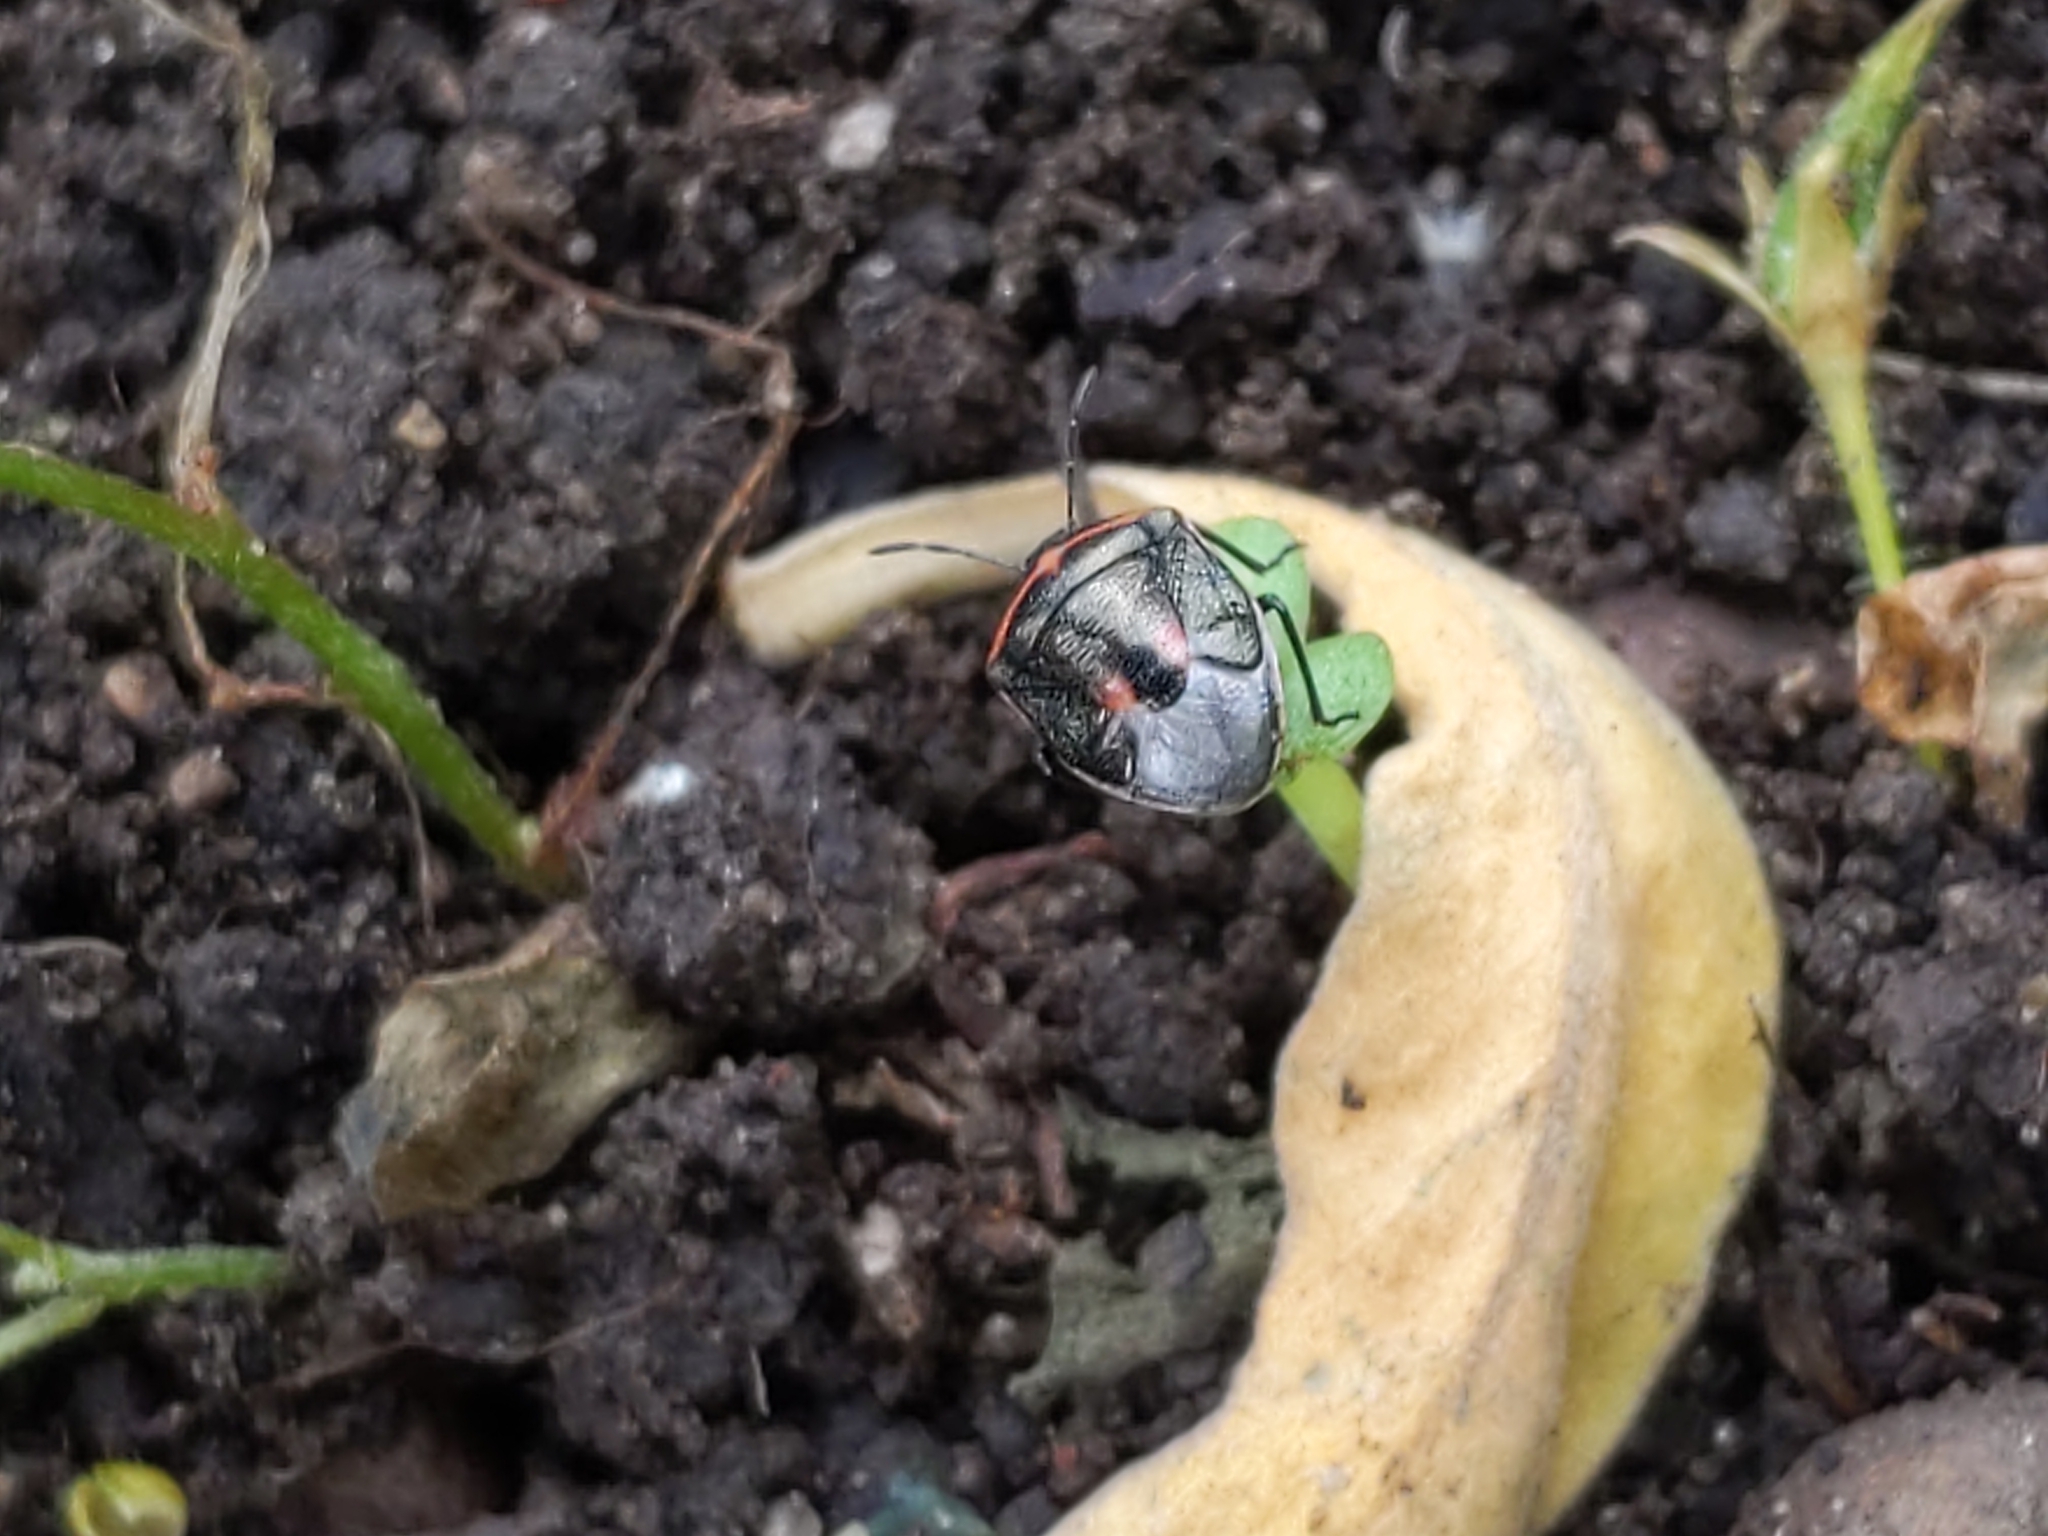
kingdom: Animalia
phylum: Arthropoda
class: Insecta
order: Hemiptera
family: Pentatomidae
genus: Cosmopepla
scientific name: Cosmopepla lintneriana
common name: Twice-stabbed stink bug
